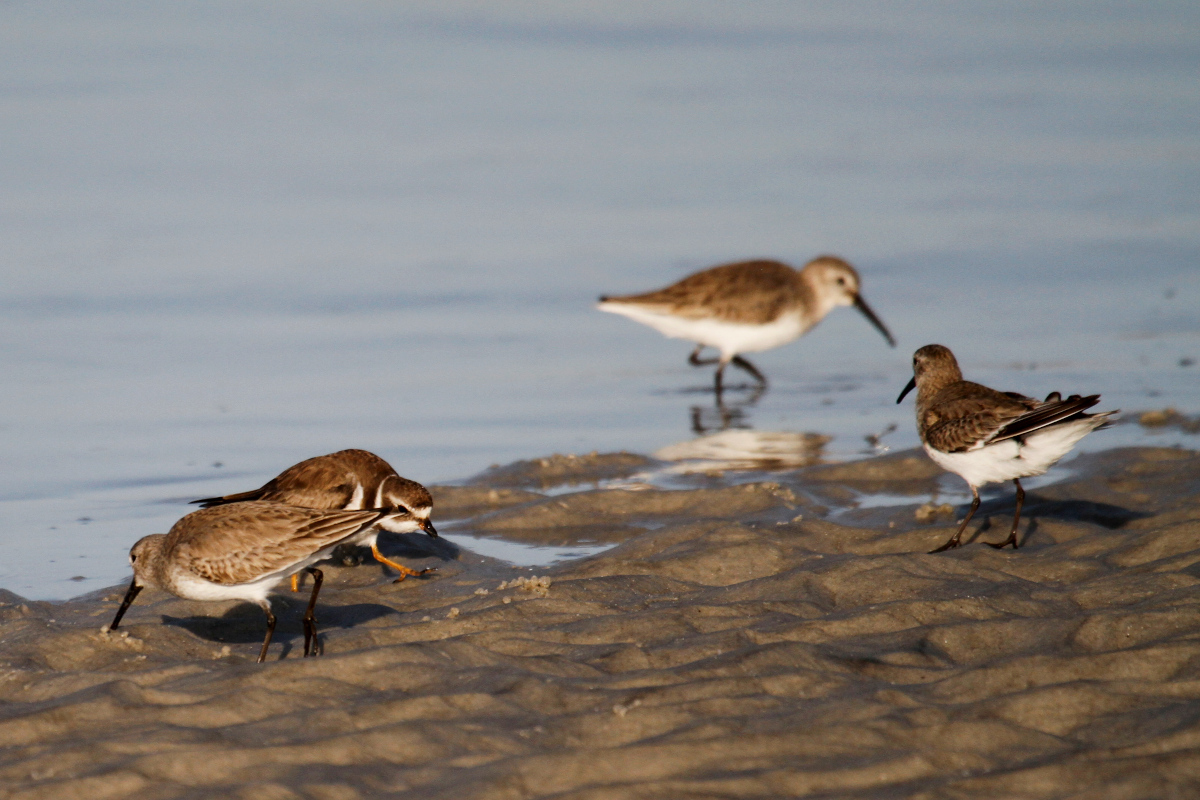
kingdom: Animalia
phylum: Chordata
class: Aves
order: Charadriiformes
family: Scolopacidae
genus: Calidris
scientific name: Calidris alpina
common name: Dunlin
